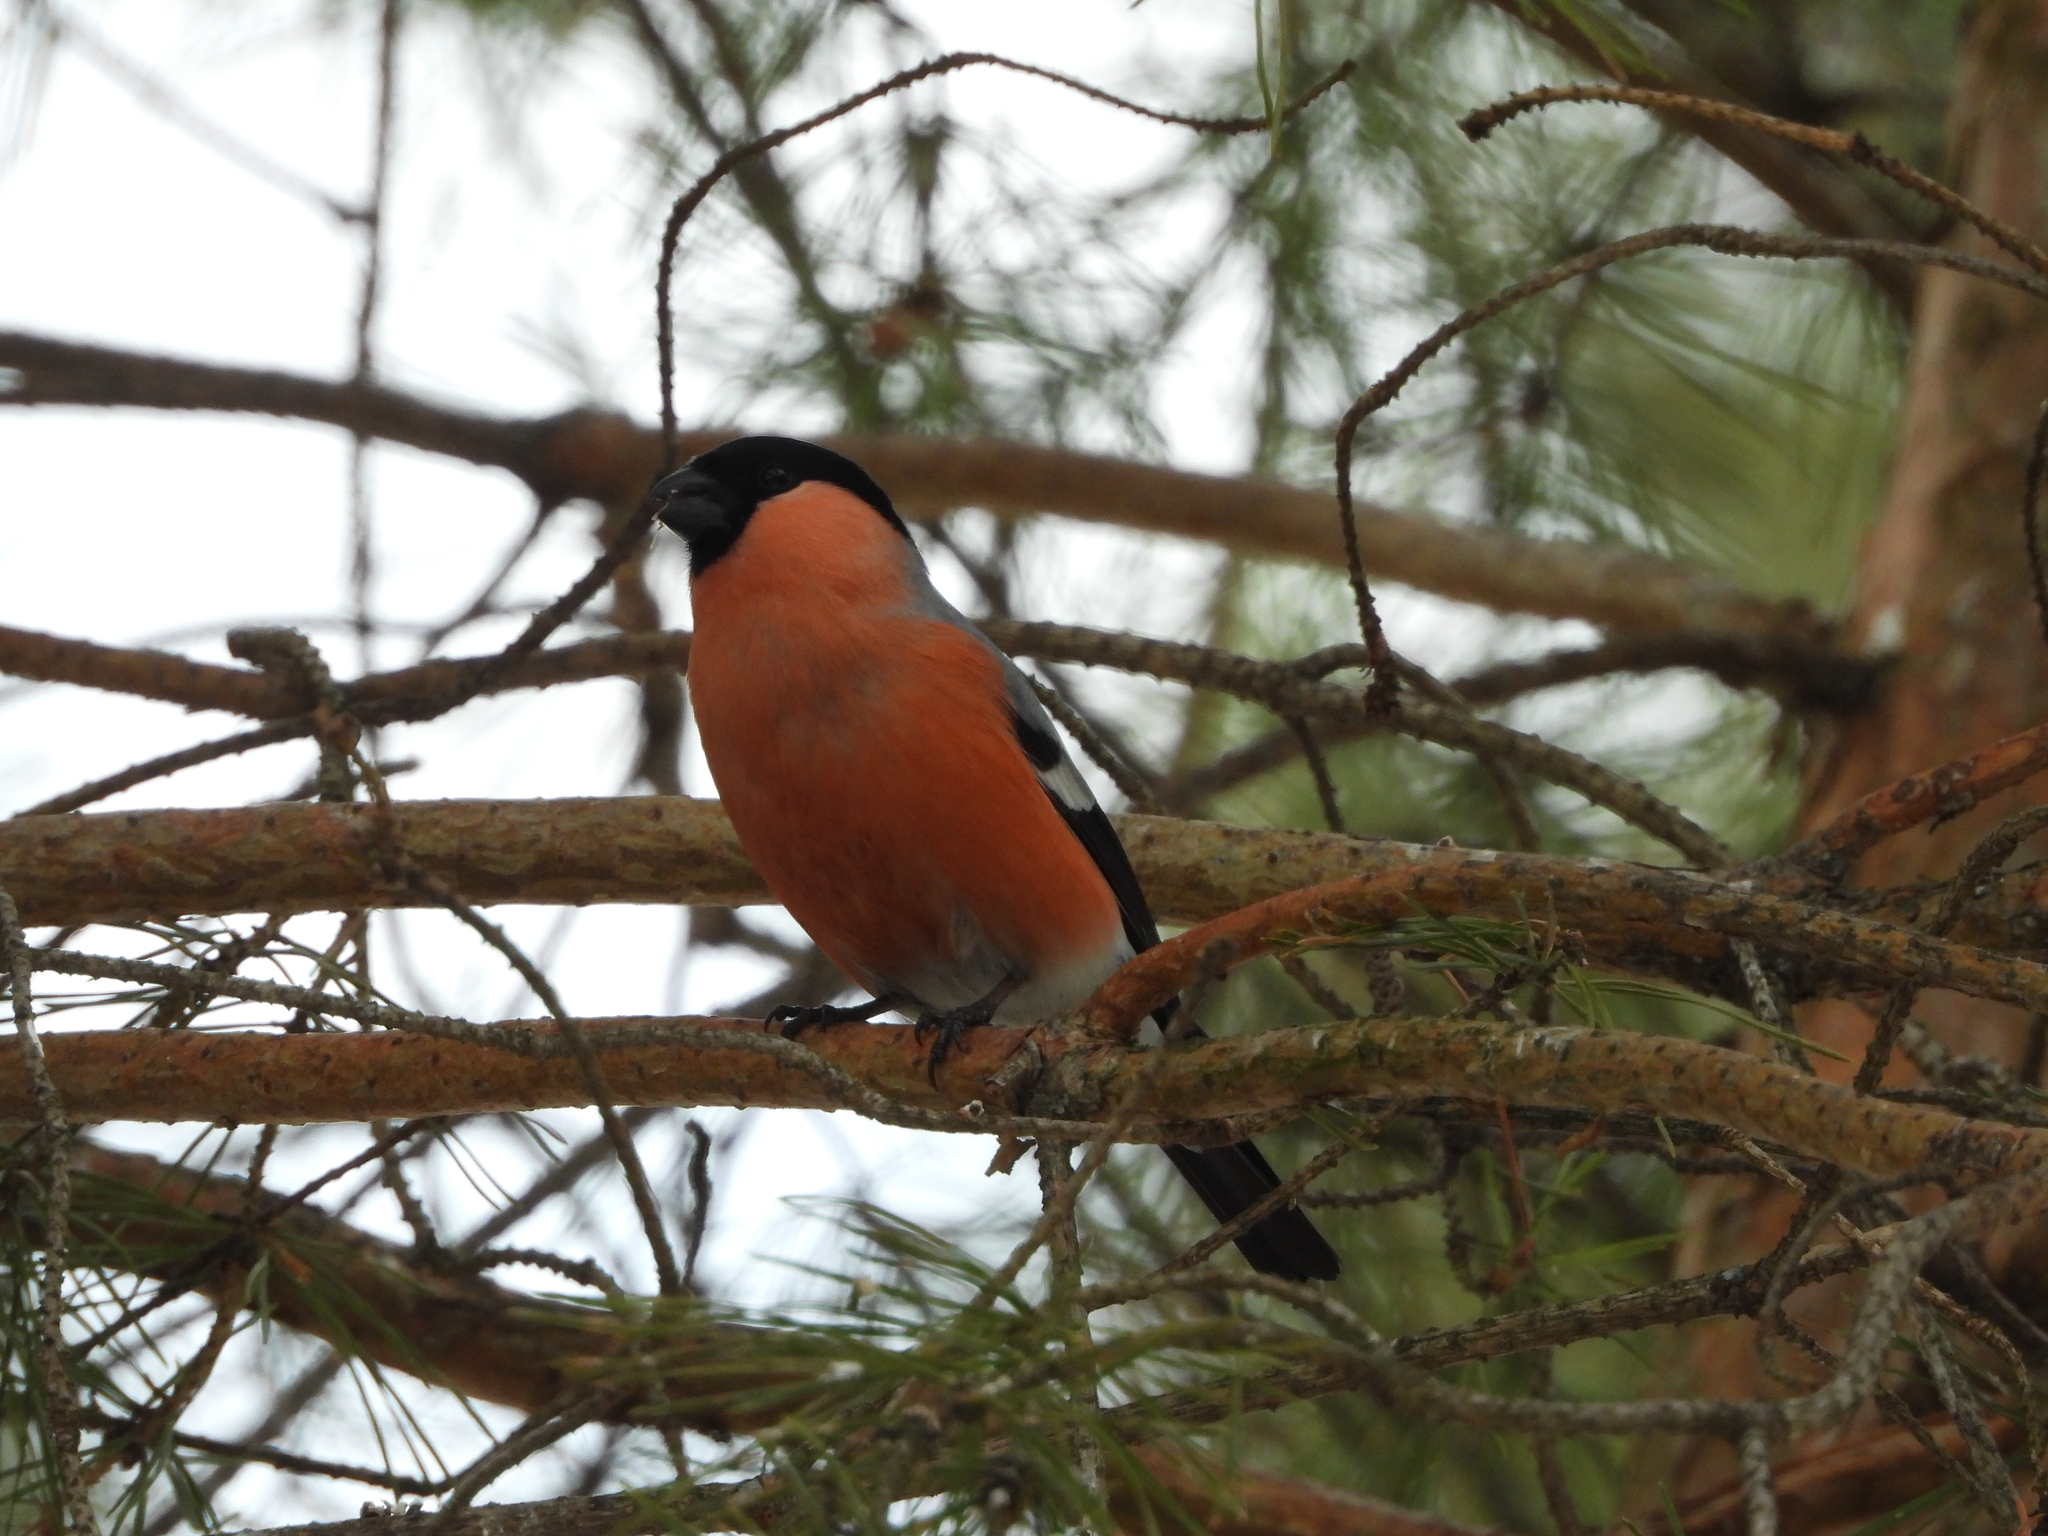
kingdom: Animalia
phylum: Chordata
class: Aves
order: Passeriformes
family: Fringillidae
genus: Pyrrhula
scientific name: Pyrrhula pyrrhula
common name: Eurasian bullfinch
